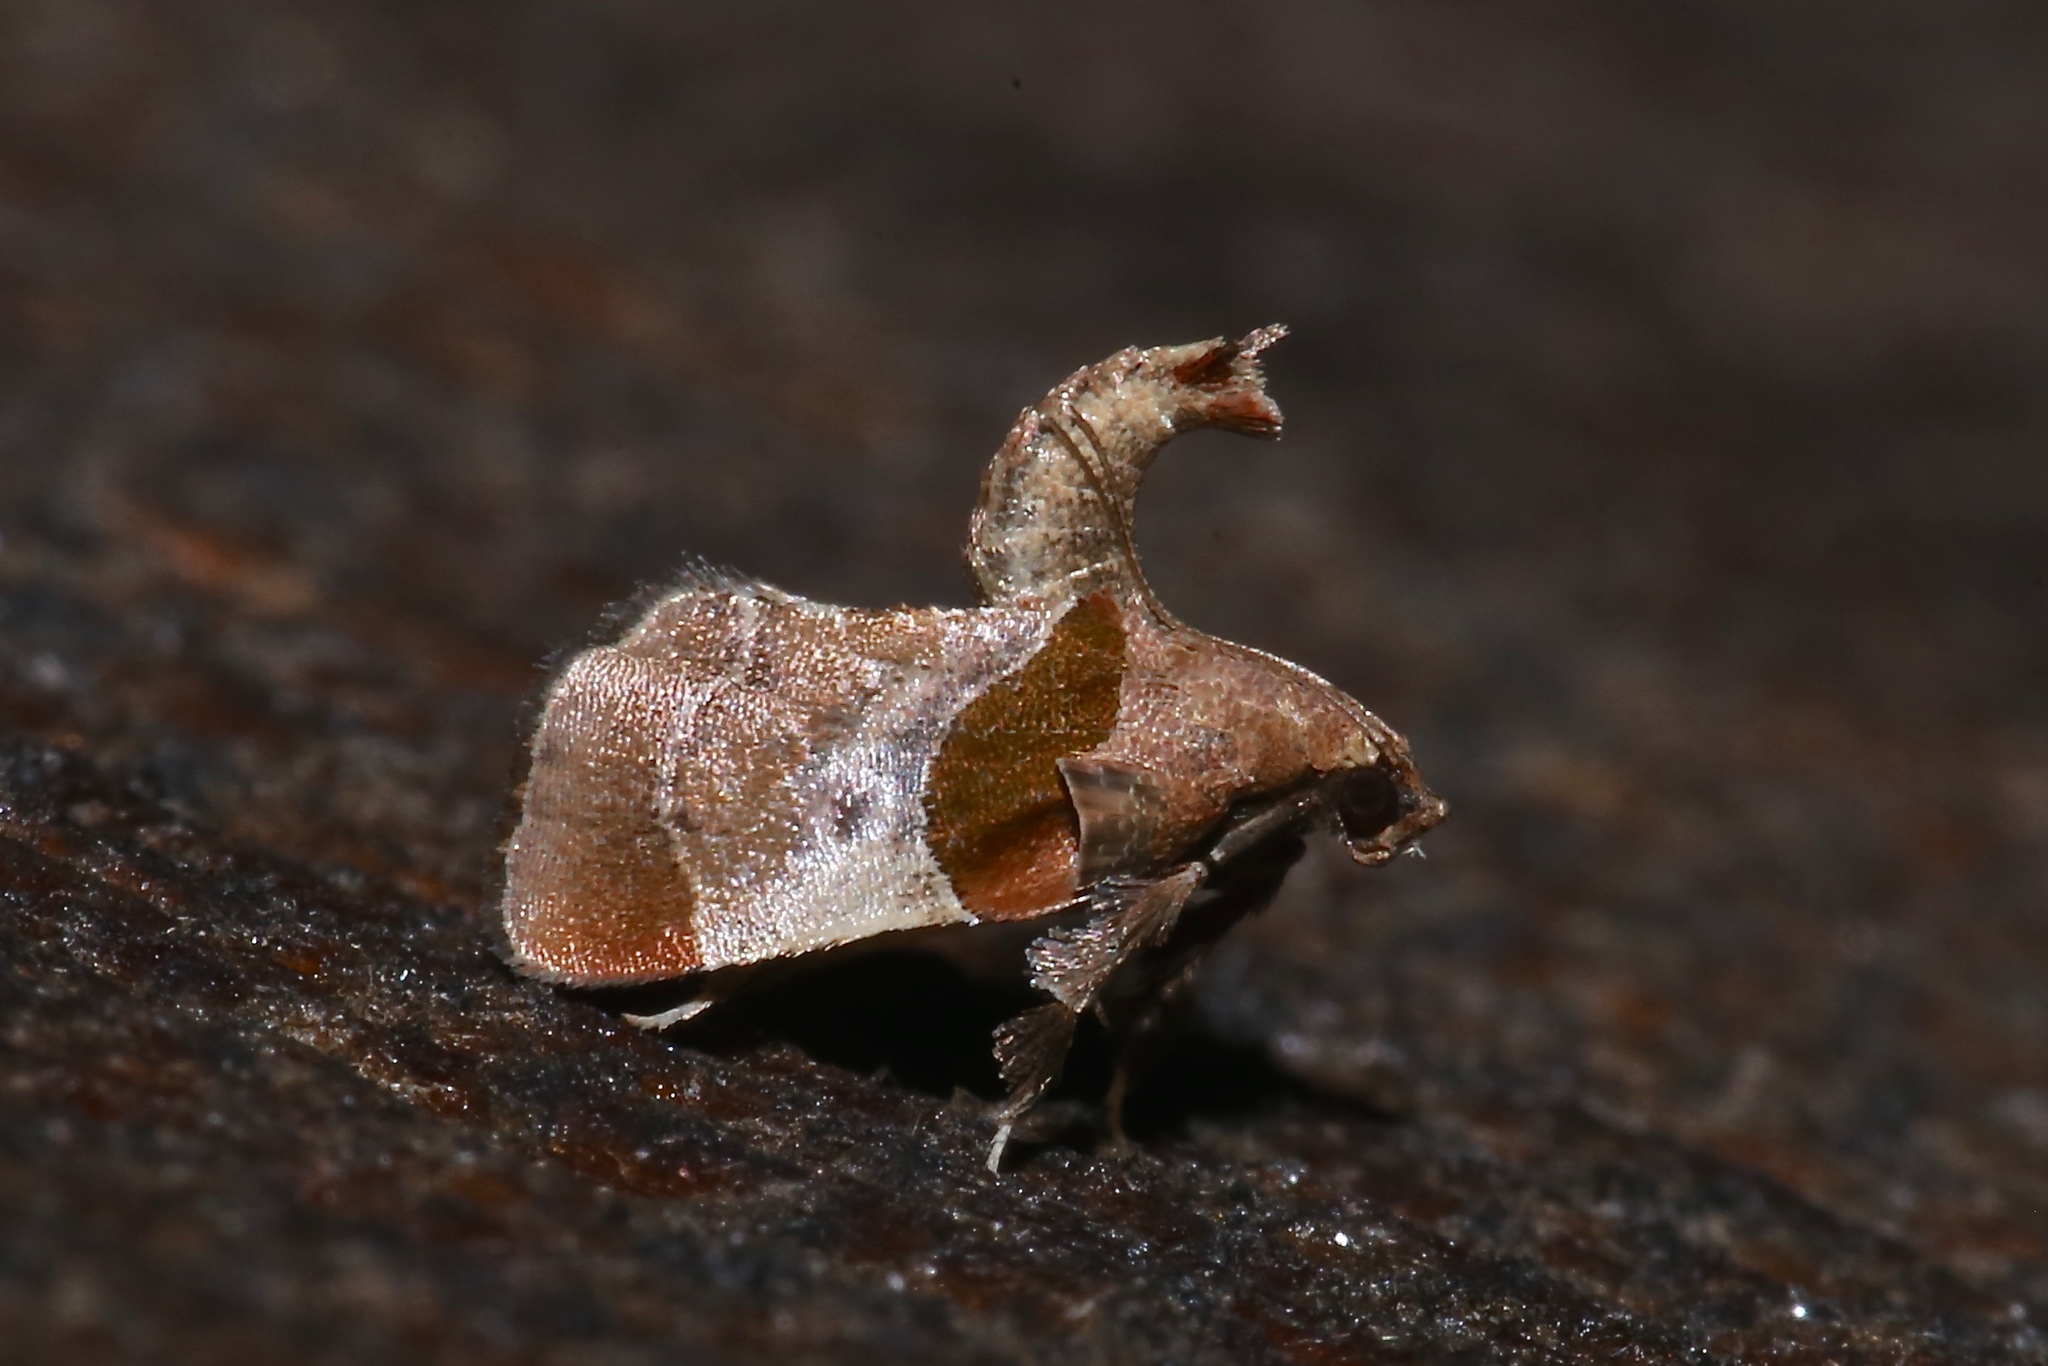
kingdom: Animalia
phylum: Arthropoda
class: Insecta
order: Lepidoptera
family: Pyralidae
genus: Tosale
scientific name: Tosale oviplagalis
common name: Dimorphic tosale moth
